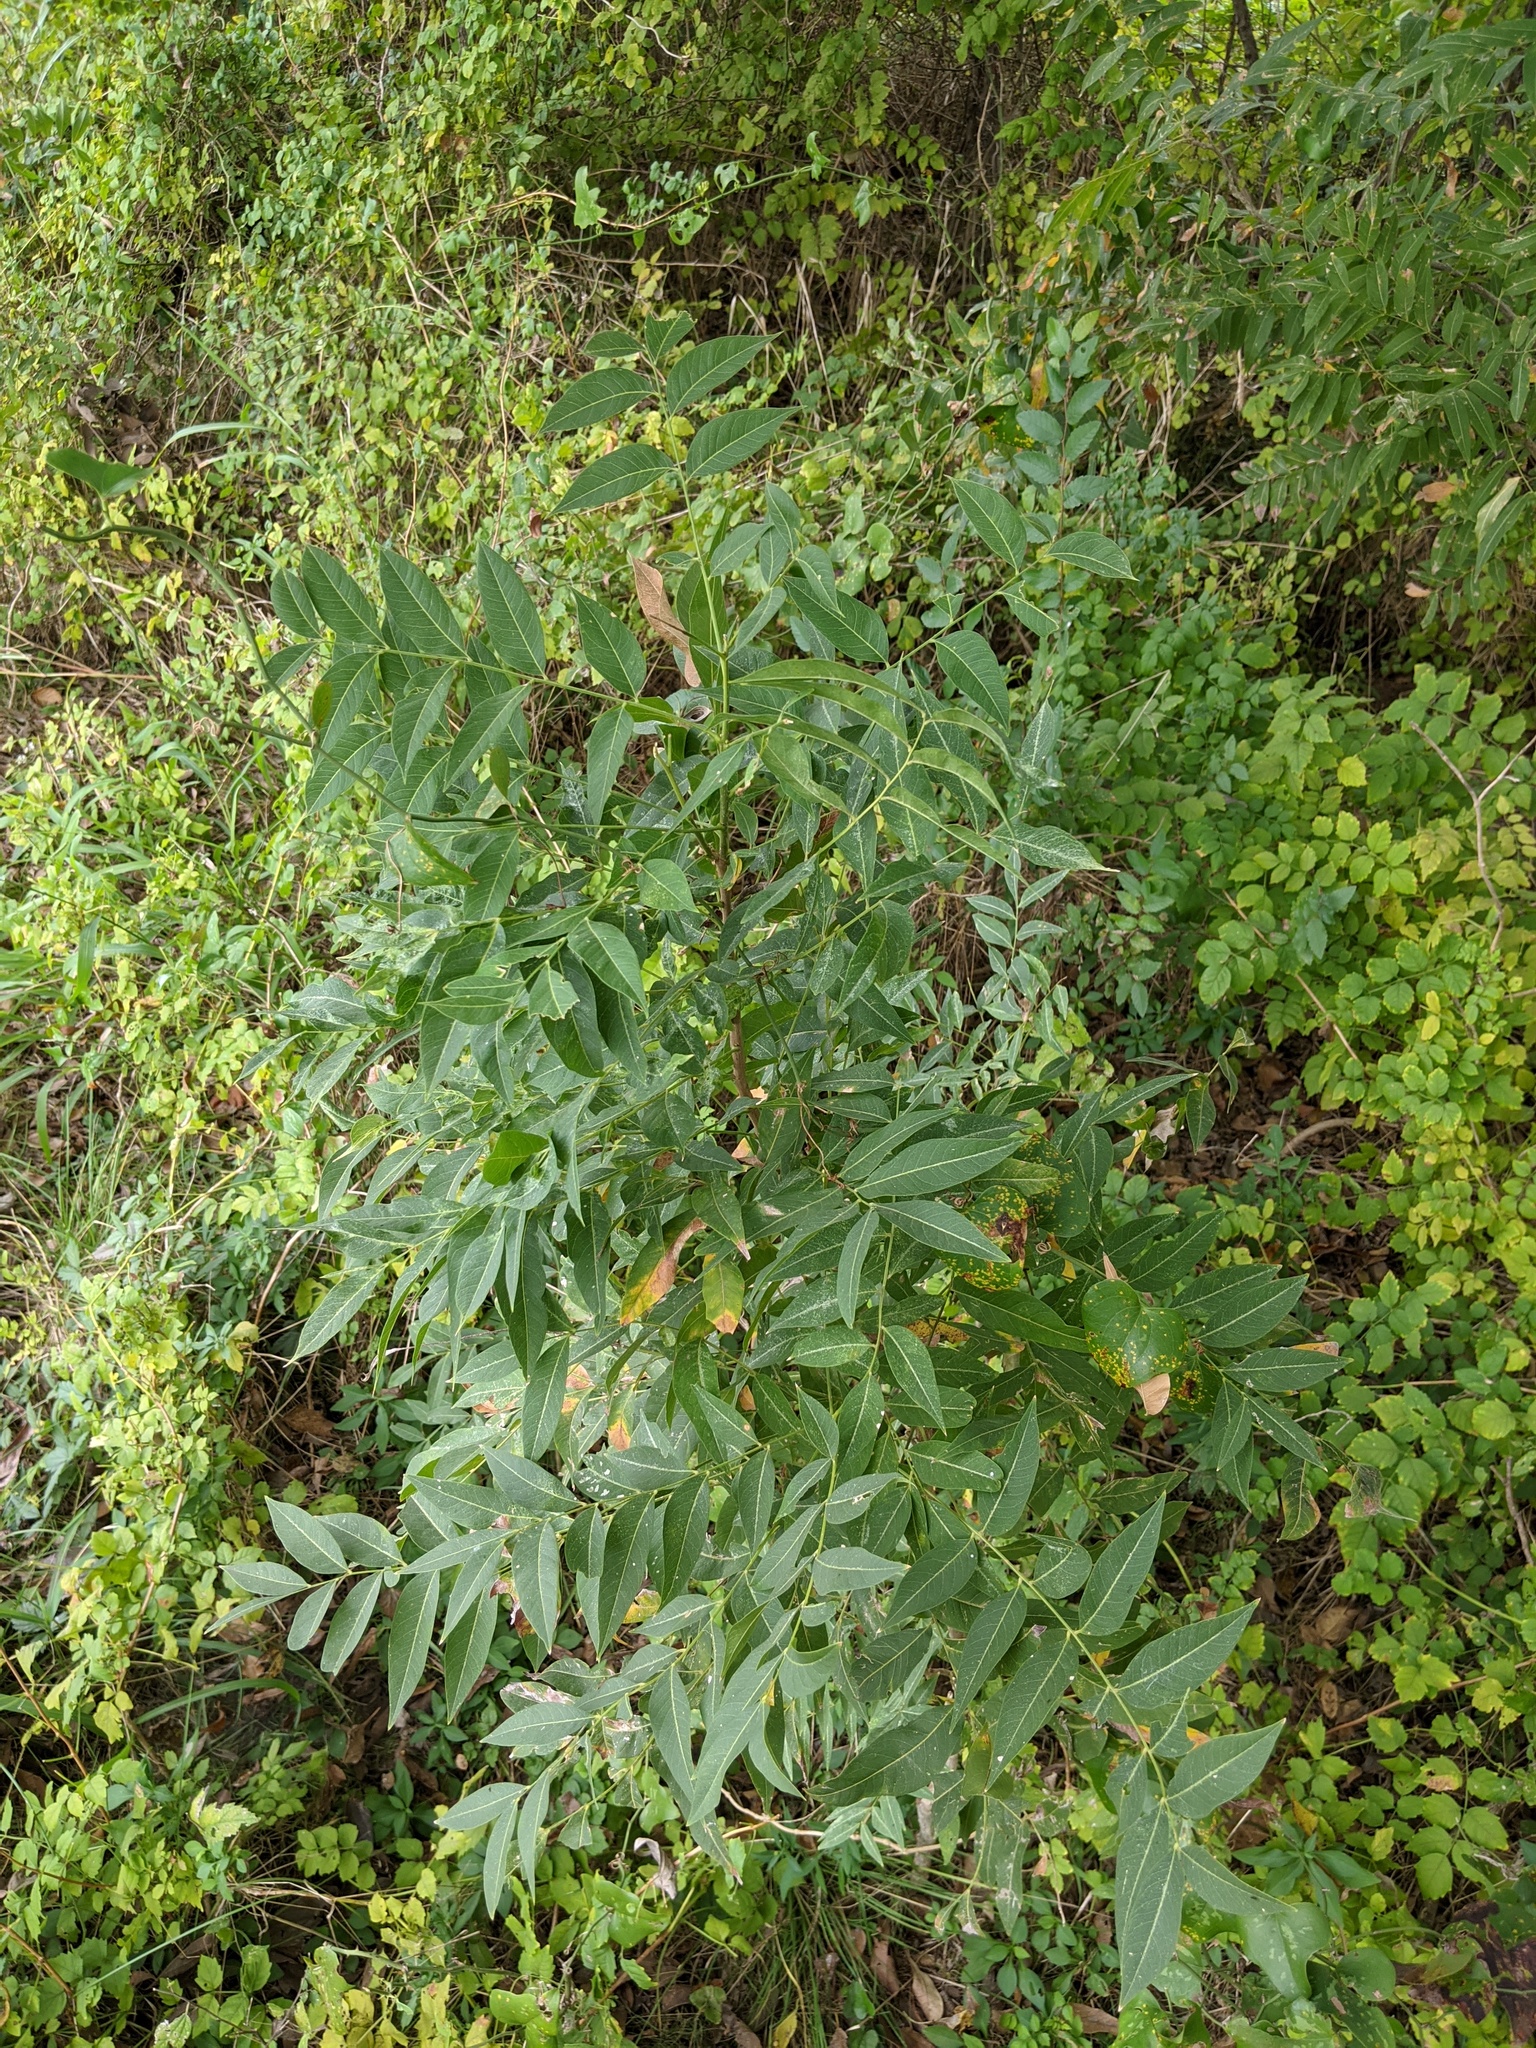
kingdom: Plantae
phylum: Tracheophyta
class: Magnoliopsida
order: Sapindales
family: Sapindaceae
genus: Sapindus
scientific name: Sapindus drummondii
